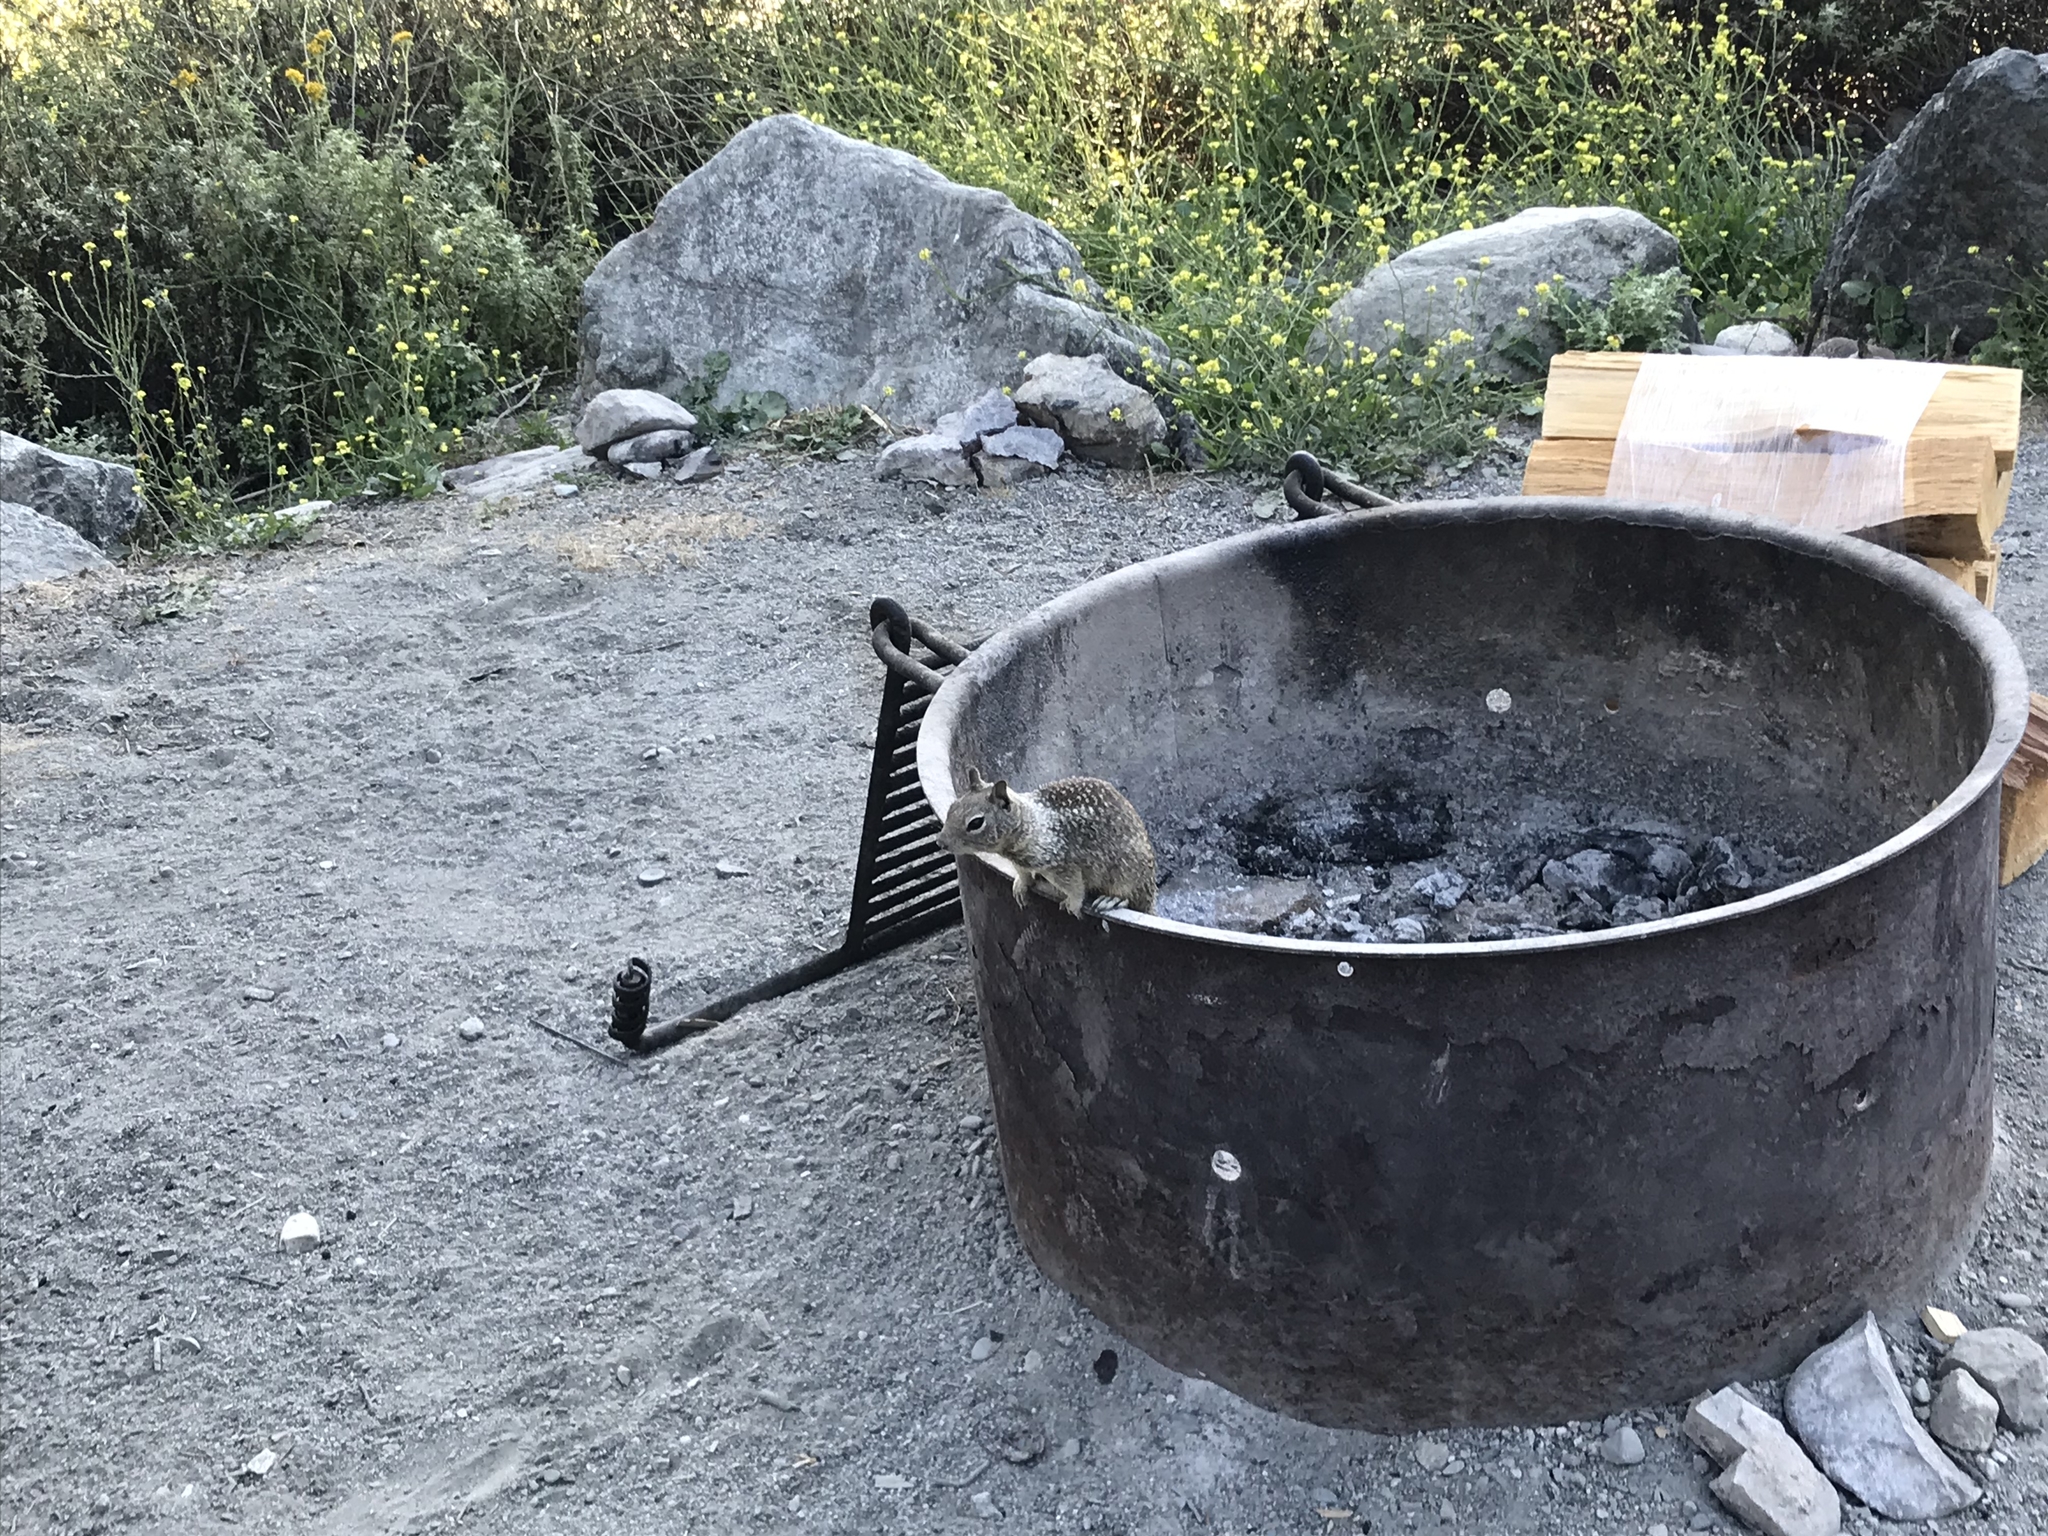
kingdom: Animalia
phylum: Chordata
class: Mammalia
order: Rodentia
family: Sciuridae
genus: Otospermophilus
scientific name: Otospermophilus beecheyi
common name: California ground squirrel
